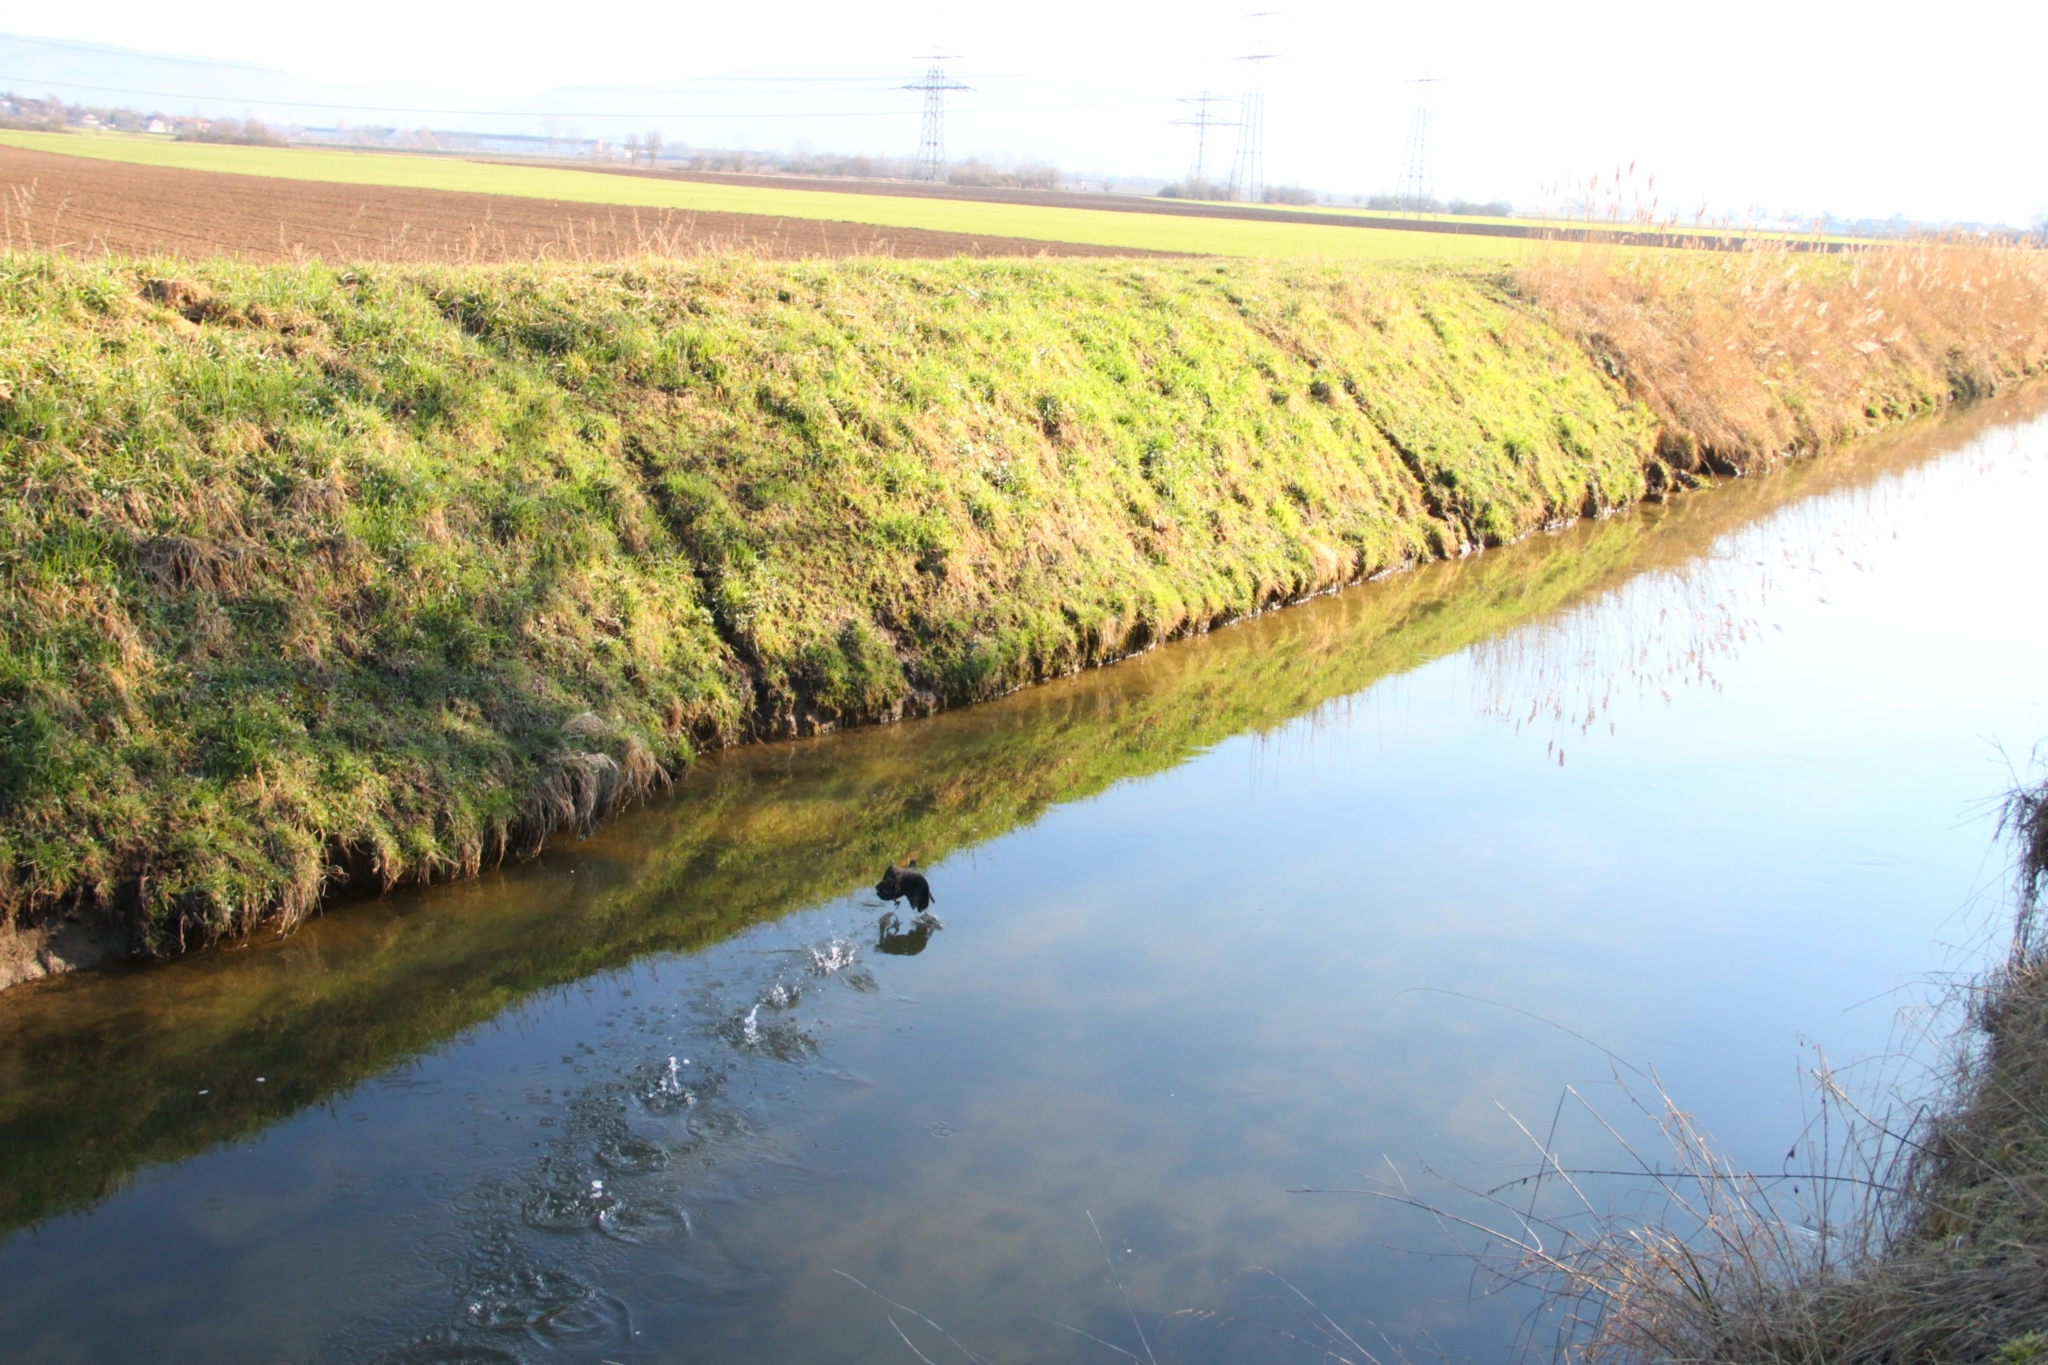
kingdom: Animalia
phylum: Chordata
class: Aves
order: Gruiformes
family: Rallidae
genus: Gallinula
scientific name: Gallinula chloropus
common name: Common moorhen
